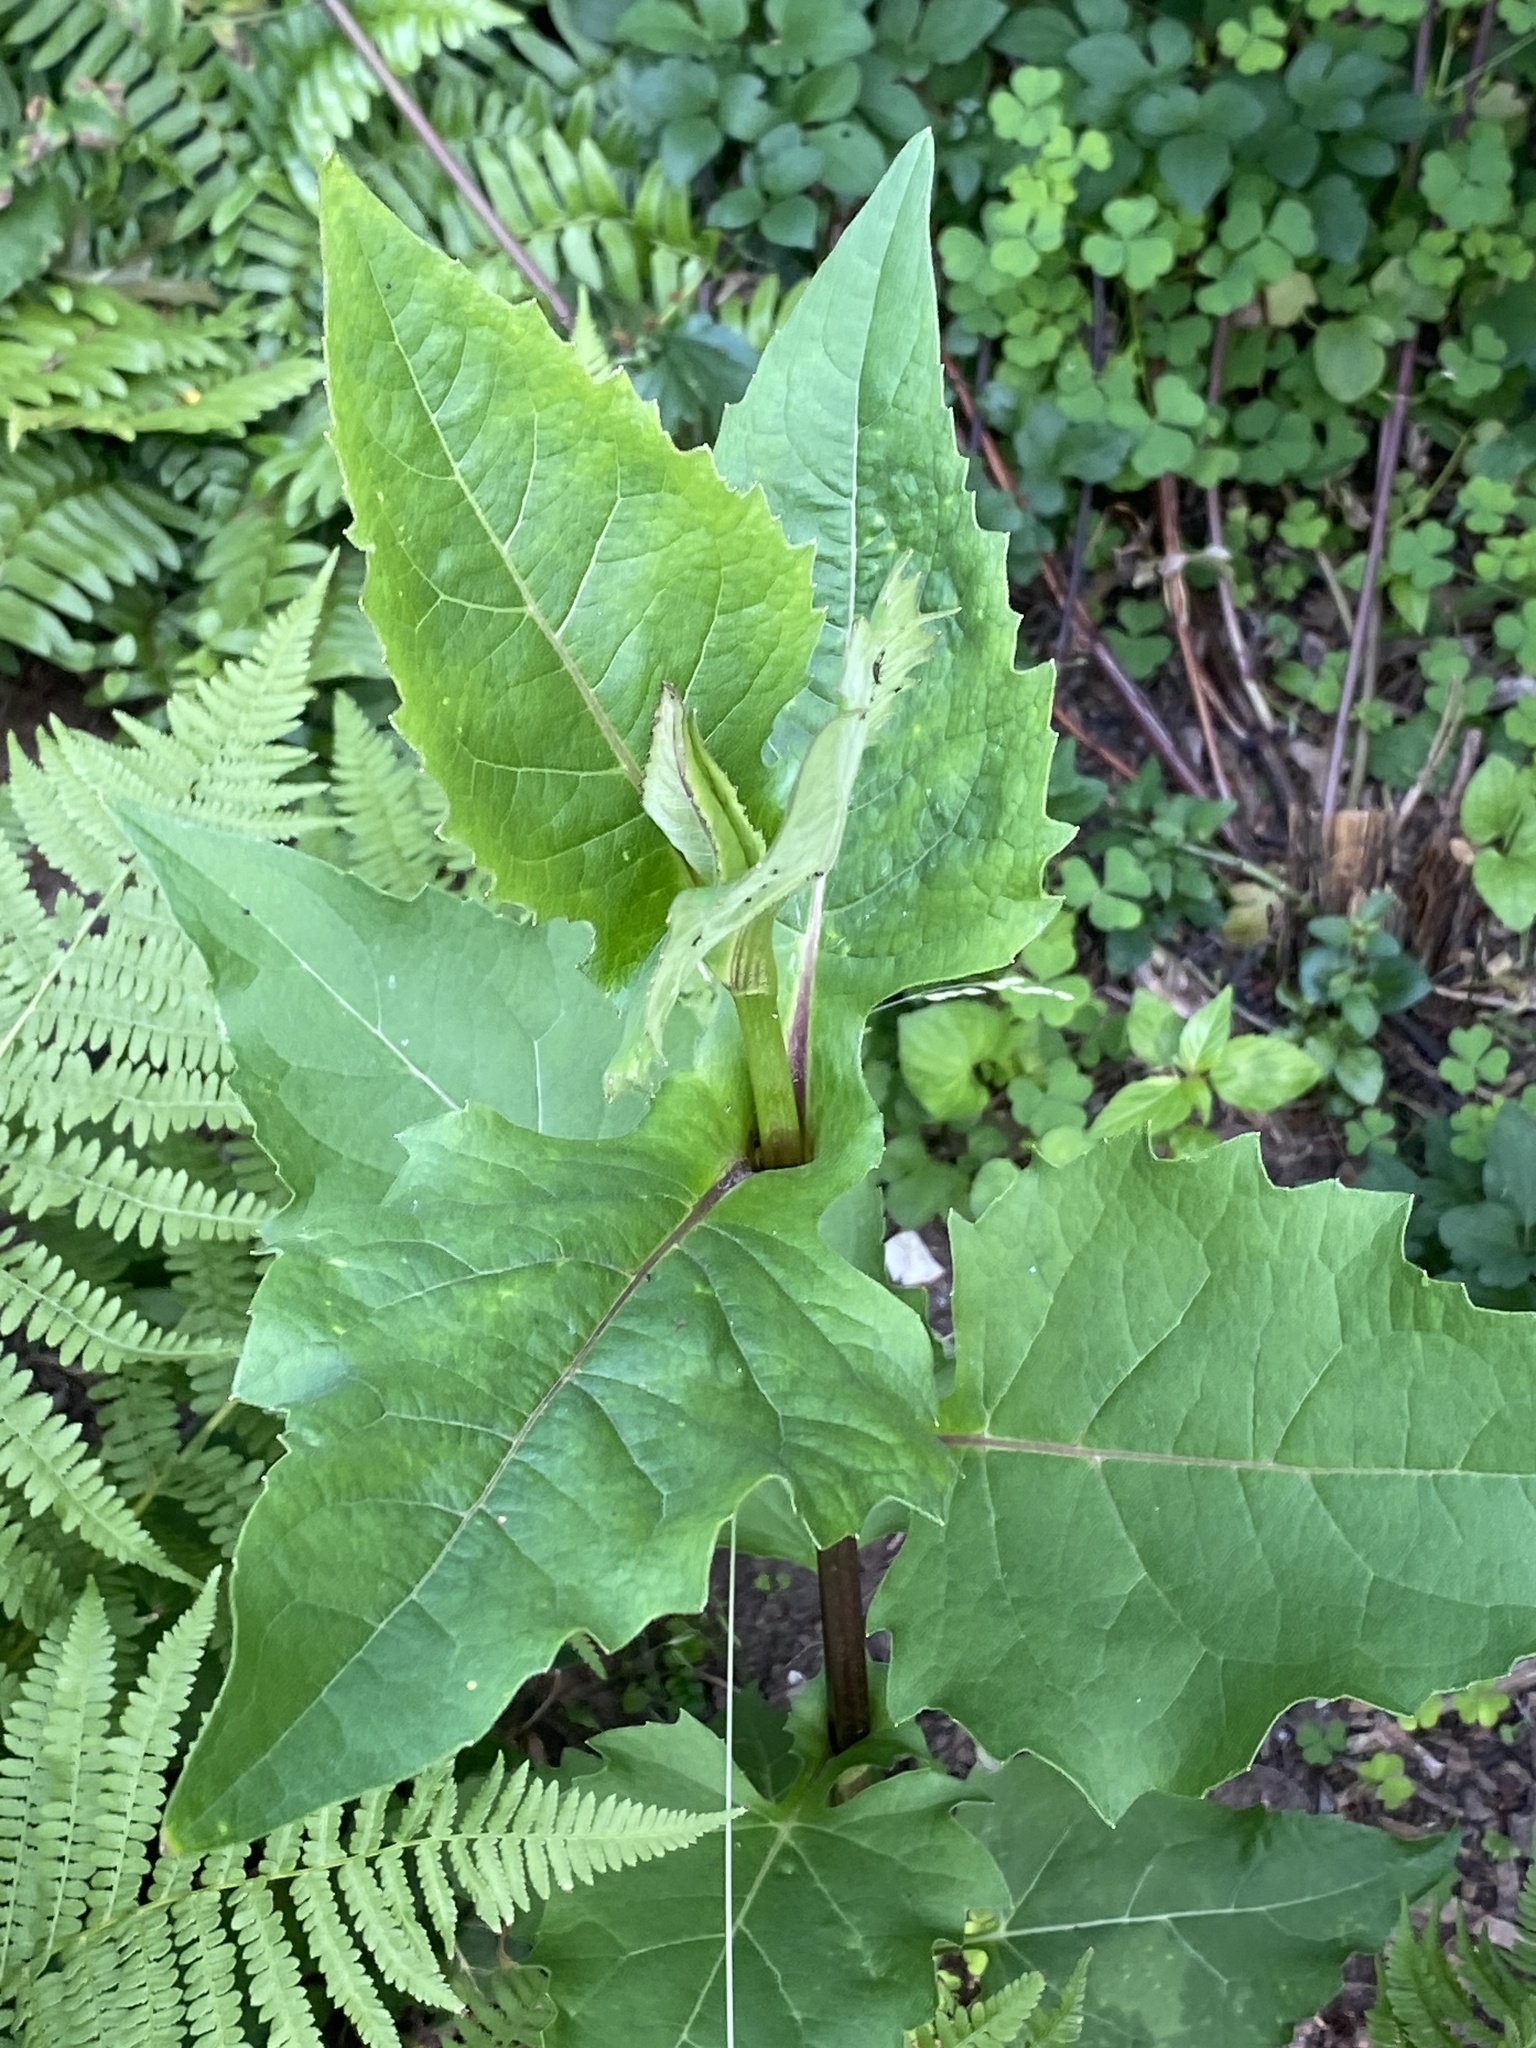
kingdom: Plantae
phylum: Tracheophyta
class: Magnoliopsida
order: Asterales
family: Asteraceae
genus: Silphium
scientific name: Silphium perfoliatum
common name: Cup-plant
